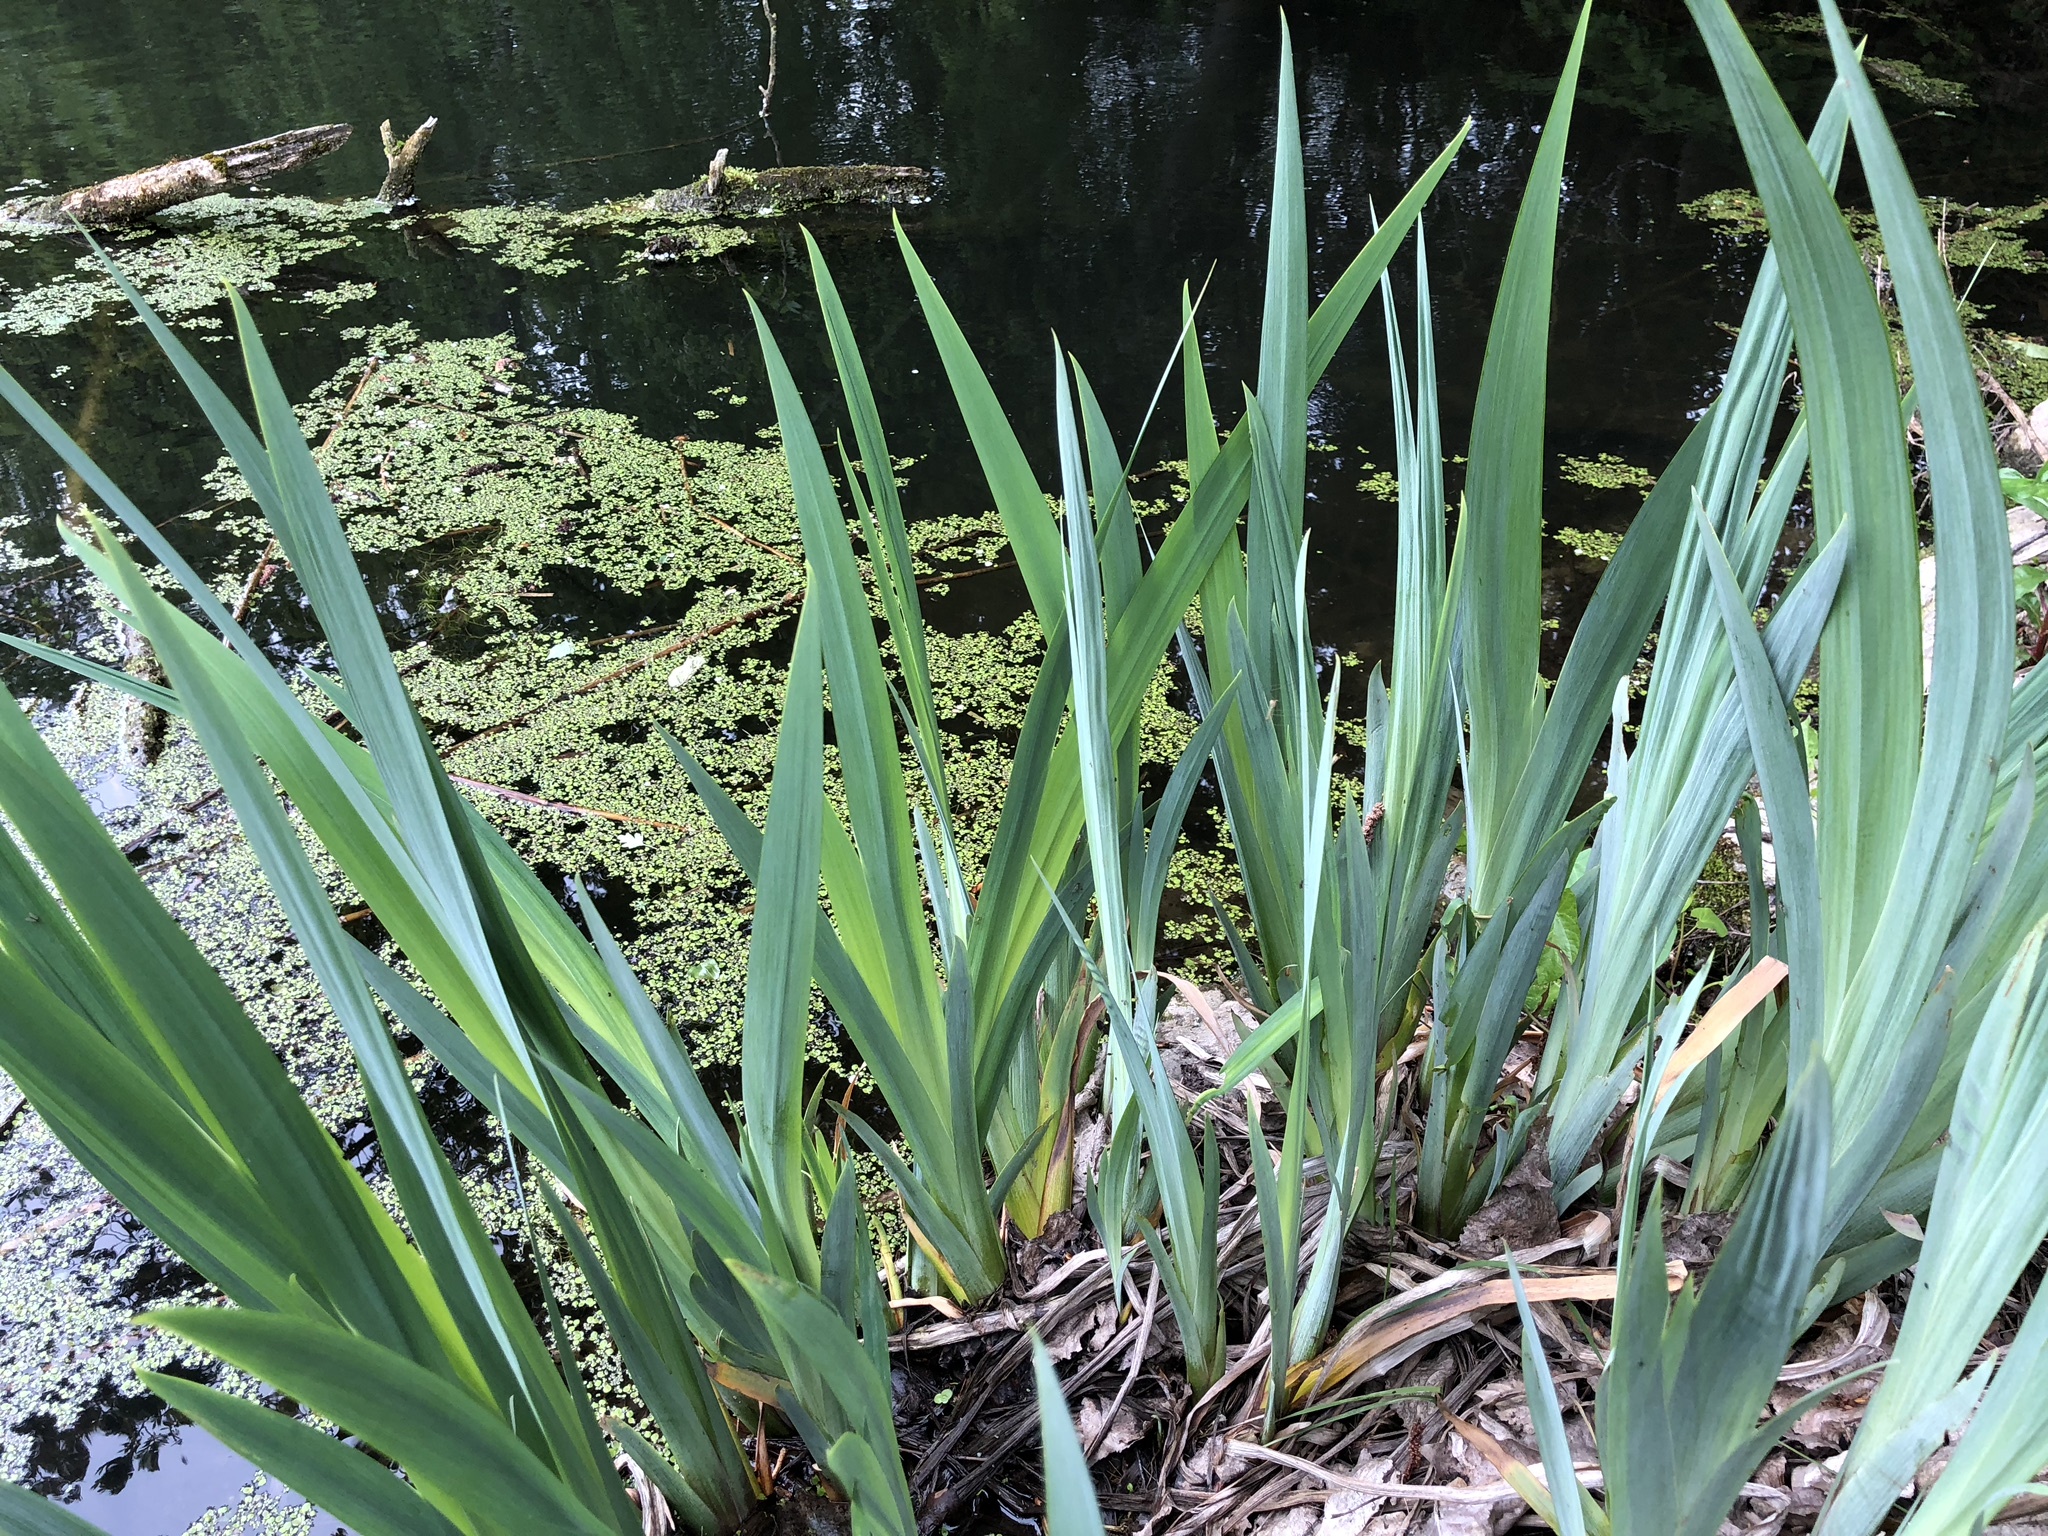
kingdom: Plantae
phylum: Tracheophyta
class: Liliopsida
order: Asparagales
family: Iridaceae
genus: Iris
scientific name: Iris pseudacorus
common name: Yellow flag
